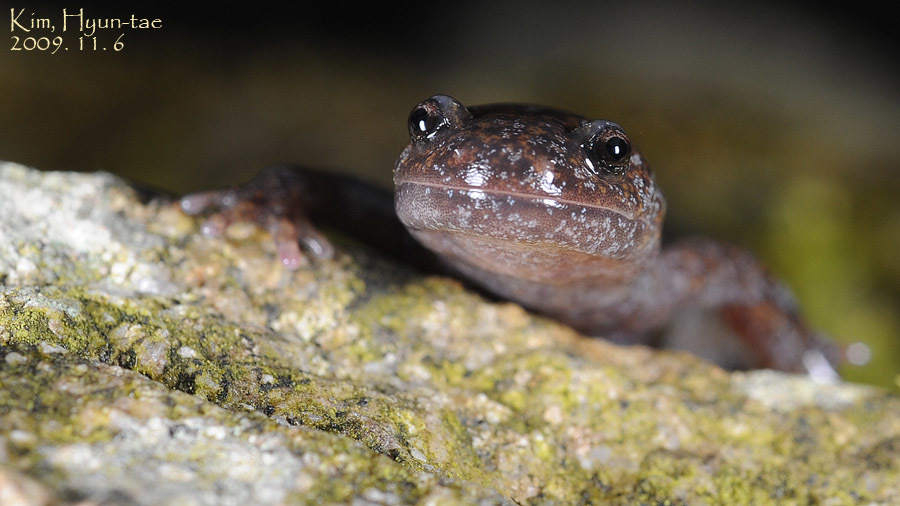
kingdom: Animalia
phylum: Chordata
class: Amphibia
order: Caudata
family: Hynobiidae
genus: Hynobius
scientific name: Hynobius leechii
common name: Gensan salamander
